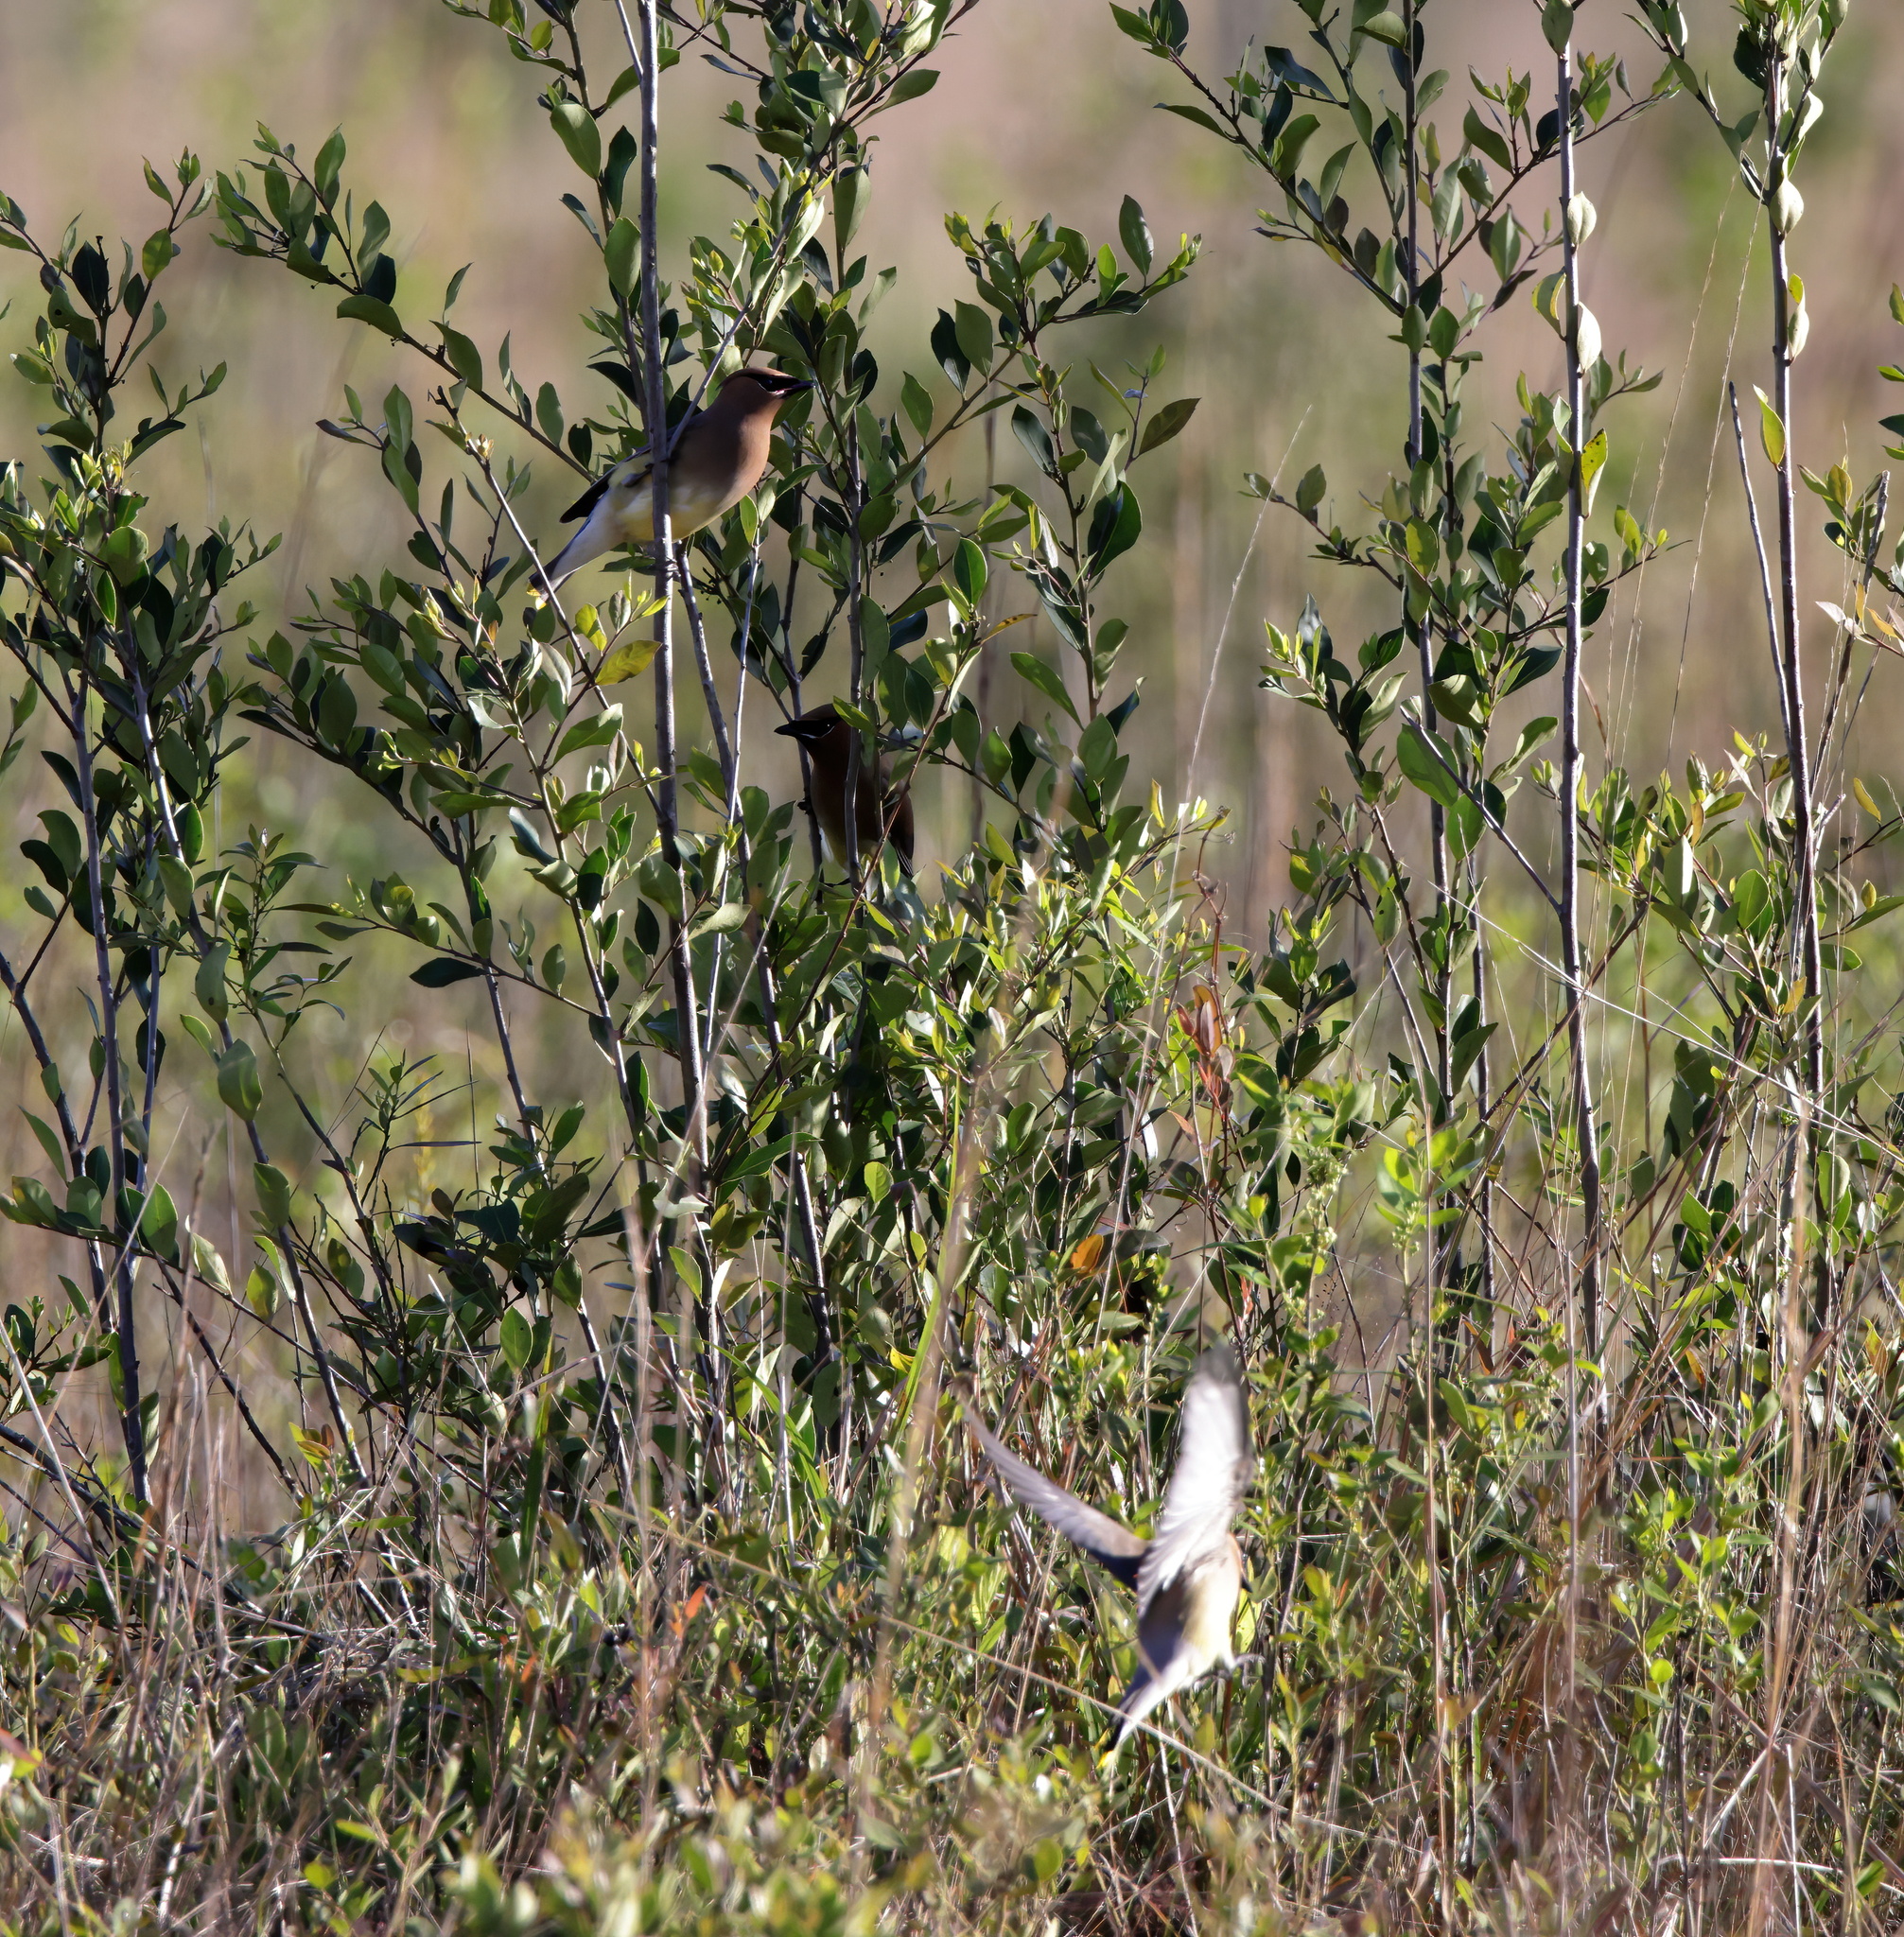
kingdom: Animalia
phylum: Chordata
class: Aves
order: Passeriformes
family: Bombycillidae
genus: Bombycilla
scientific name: Bombycilla cedrorum
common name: Cedar waxwing
